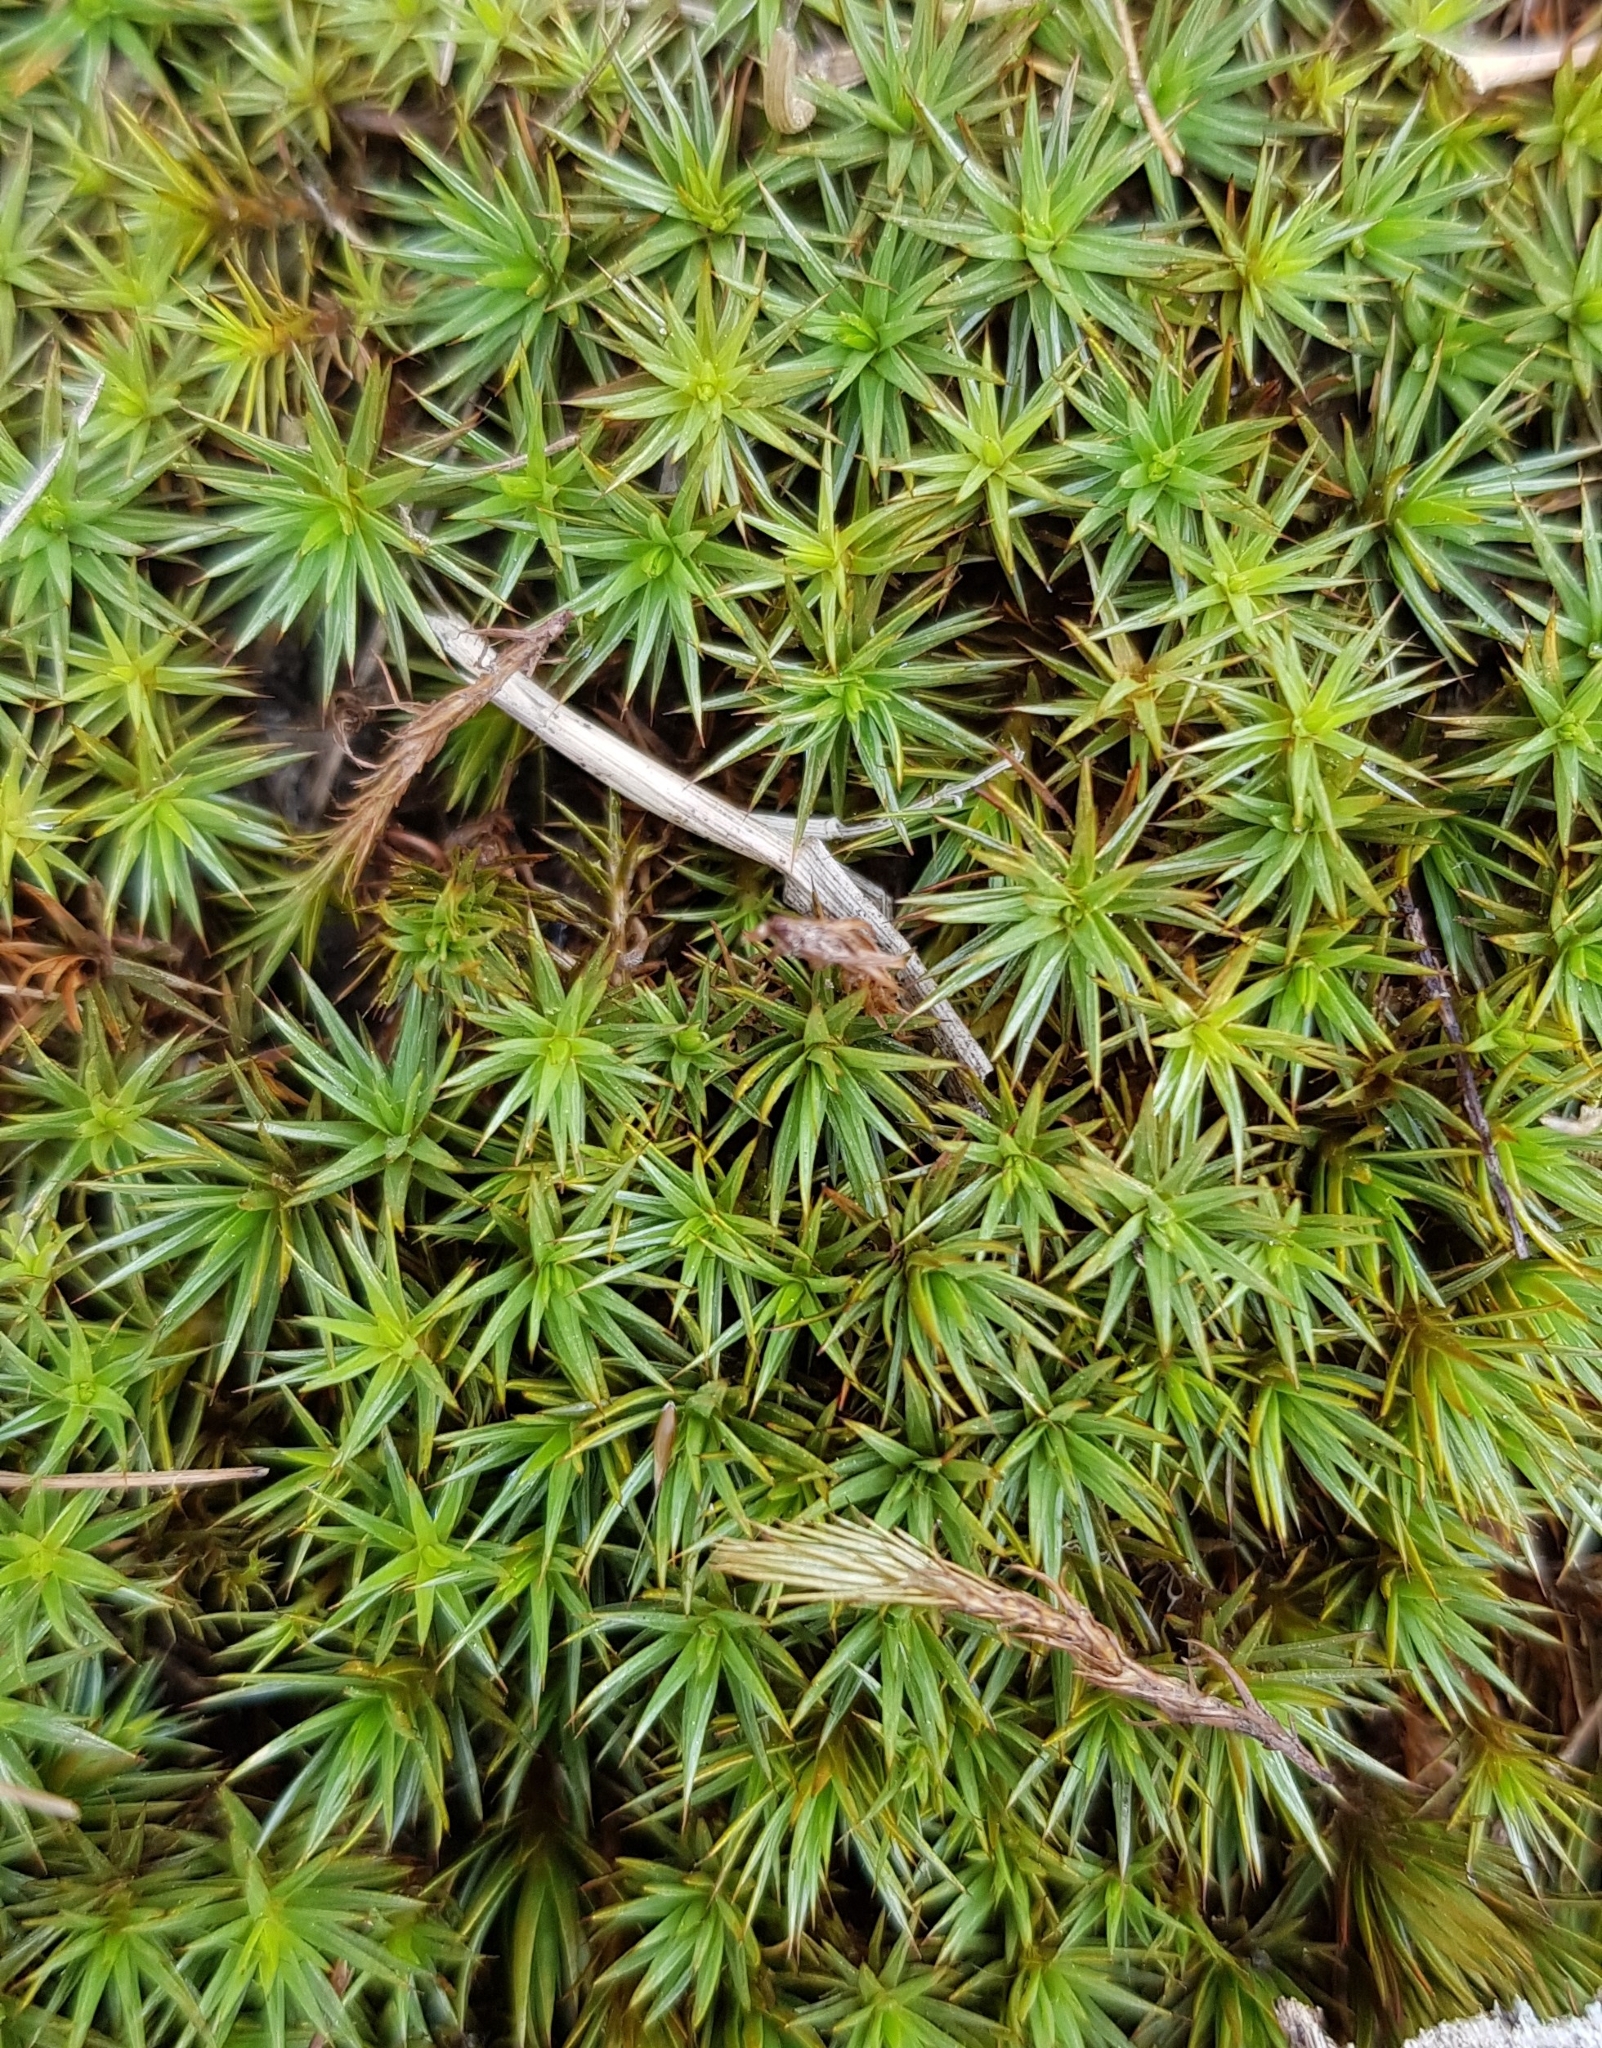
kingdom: Plantae
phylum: Bryophyta
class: Polytrichopsida
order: Polytrichales
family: Polytrichaceae
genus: Polytrichum
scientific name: Polytrichum juniperinum
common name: Juniper haircap moss
